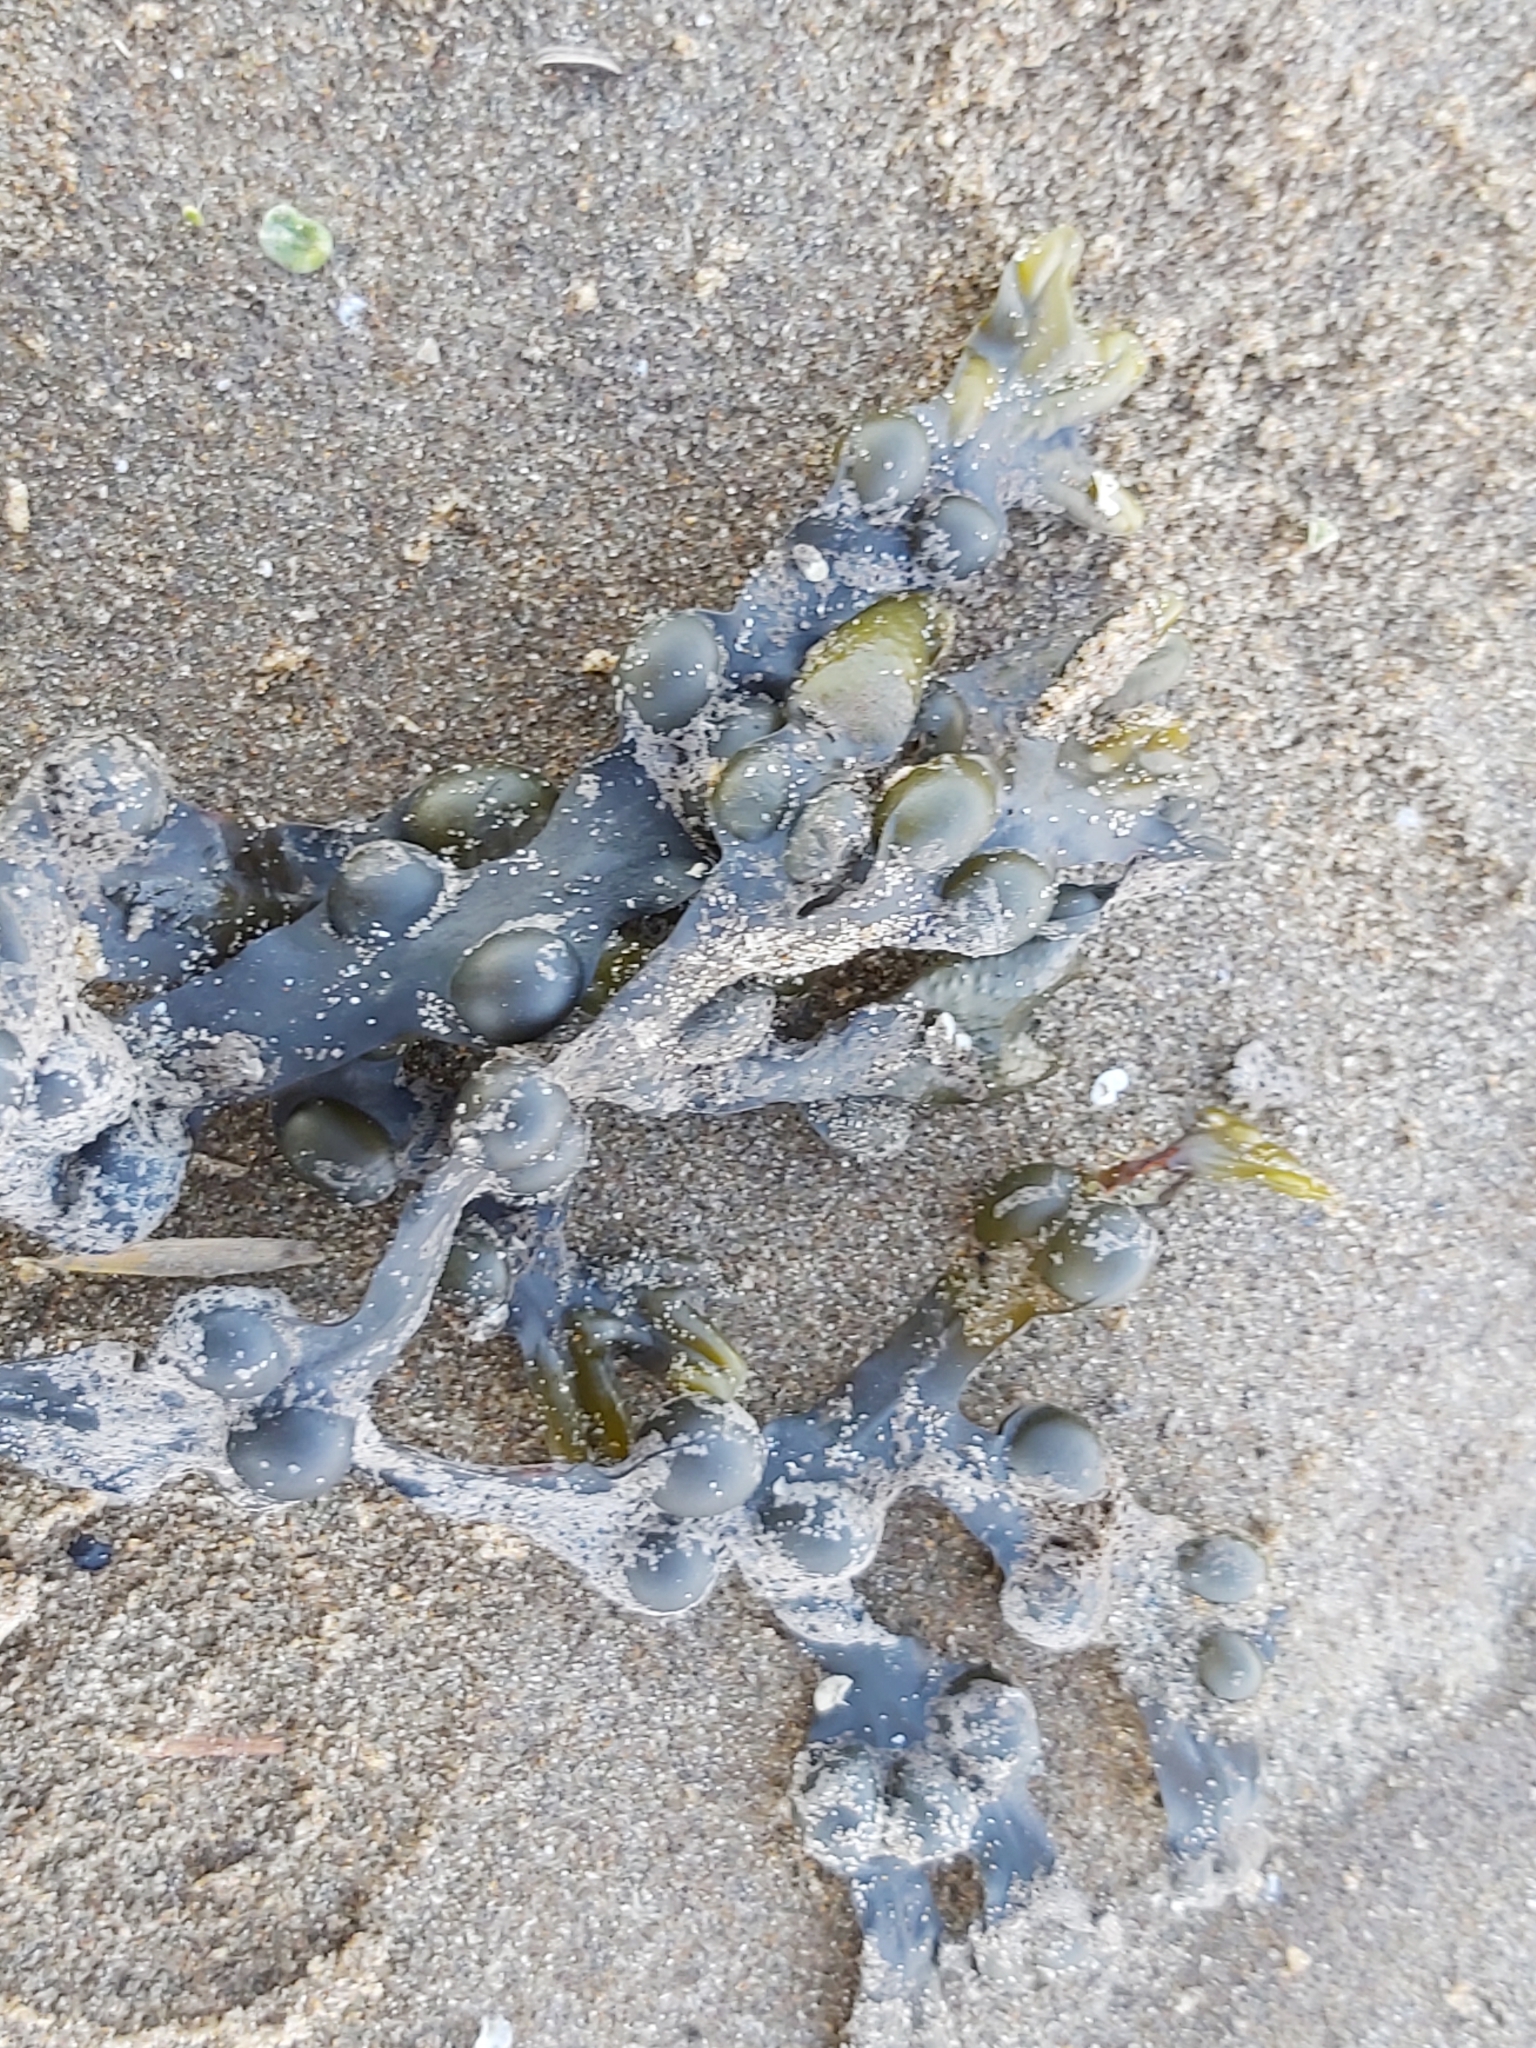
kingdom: Chromista
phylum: Ochrophyta
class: Phaeophyceae
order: Fucales
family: Fucaceae
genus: Fucus
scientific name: Fucus vesiculosus
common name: Bladder wrack
